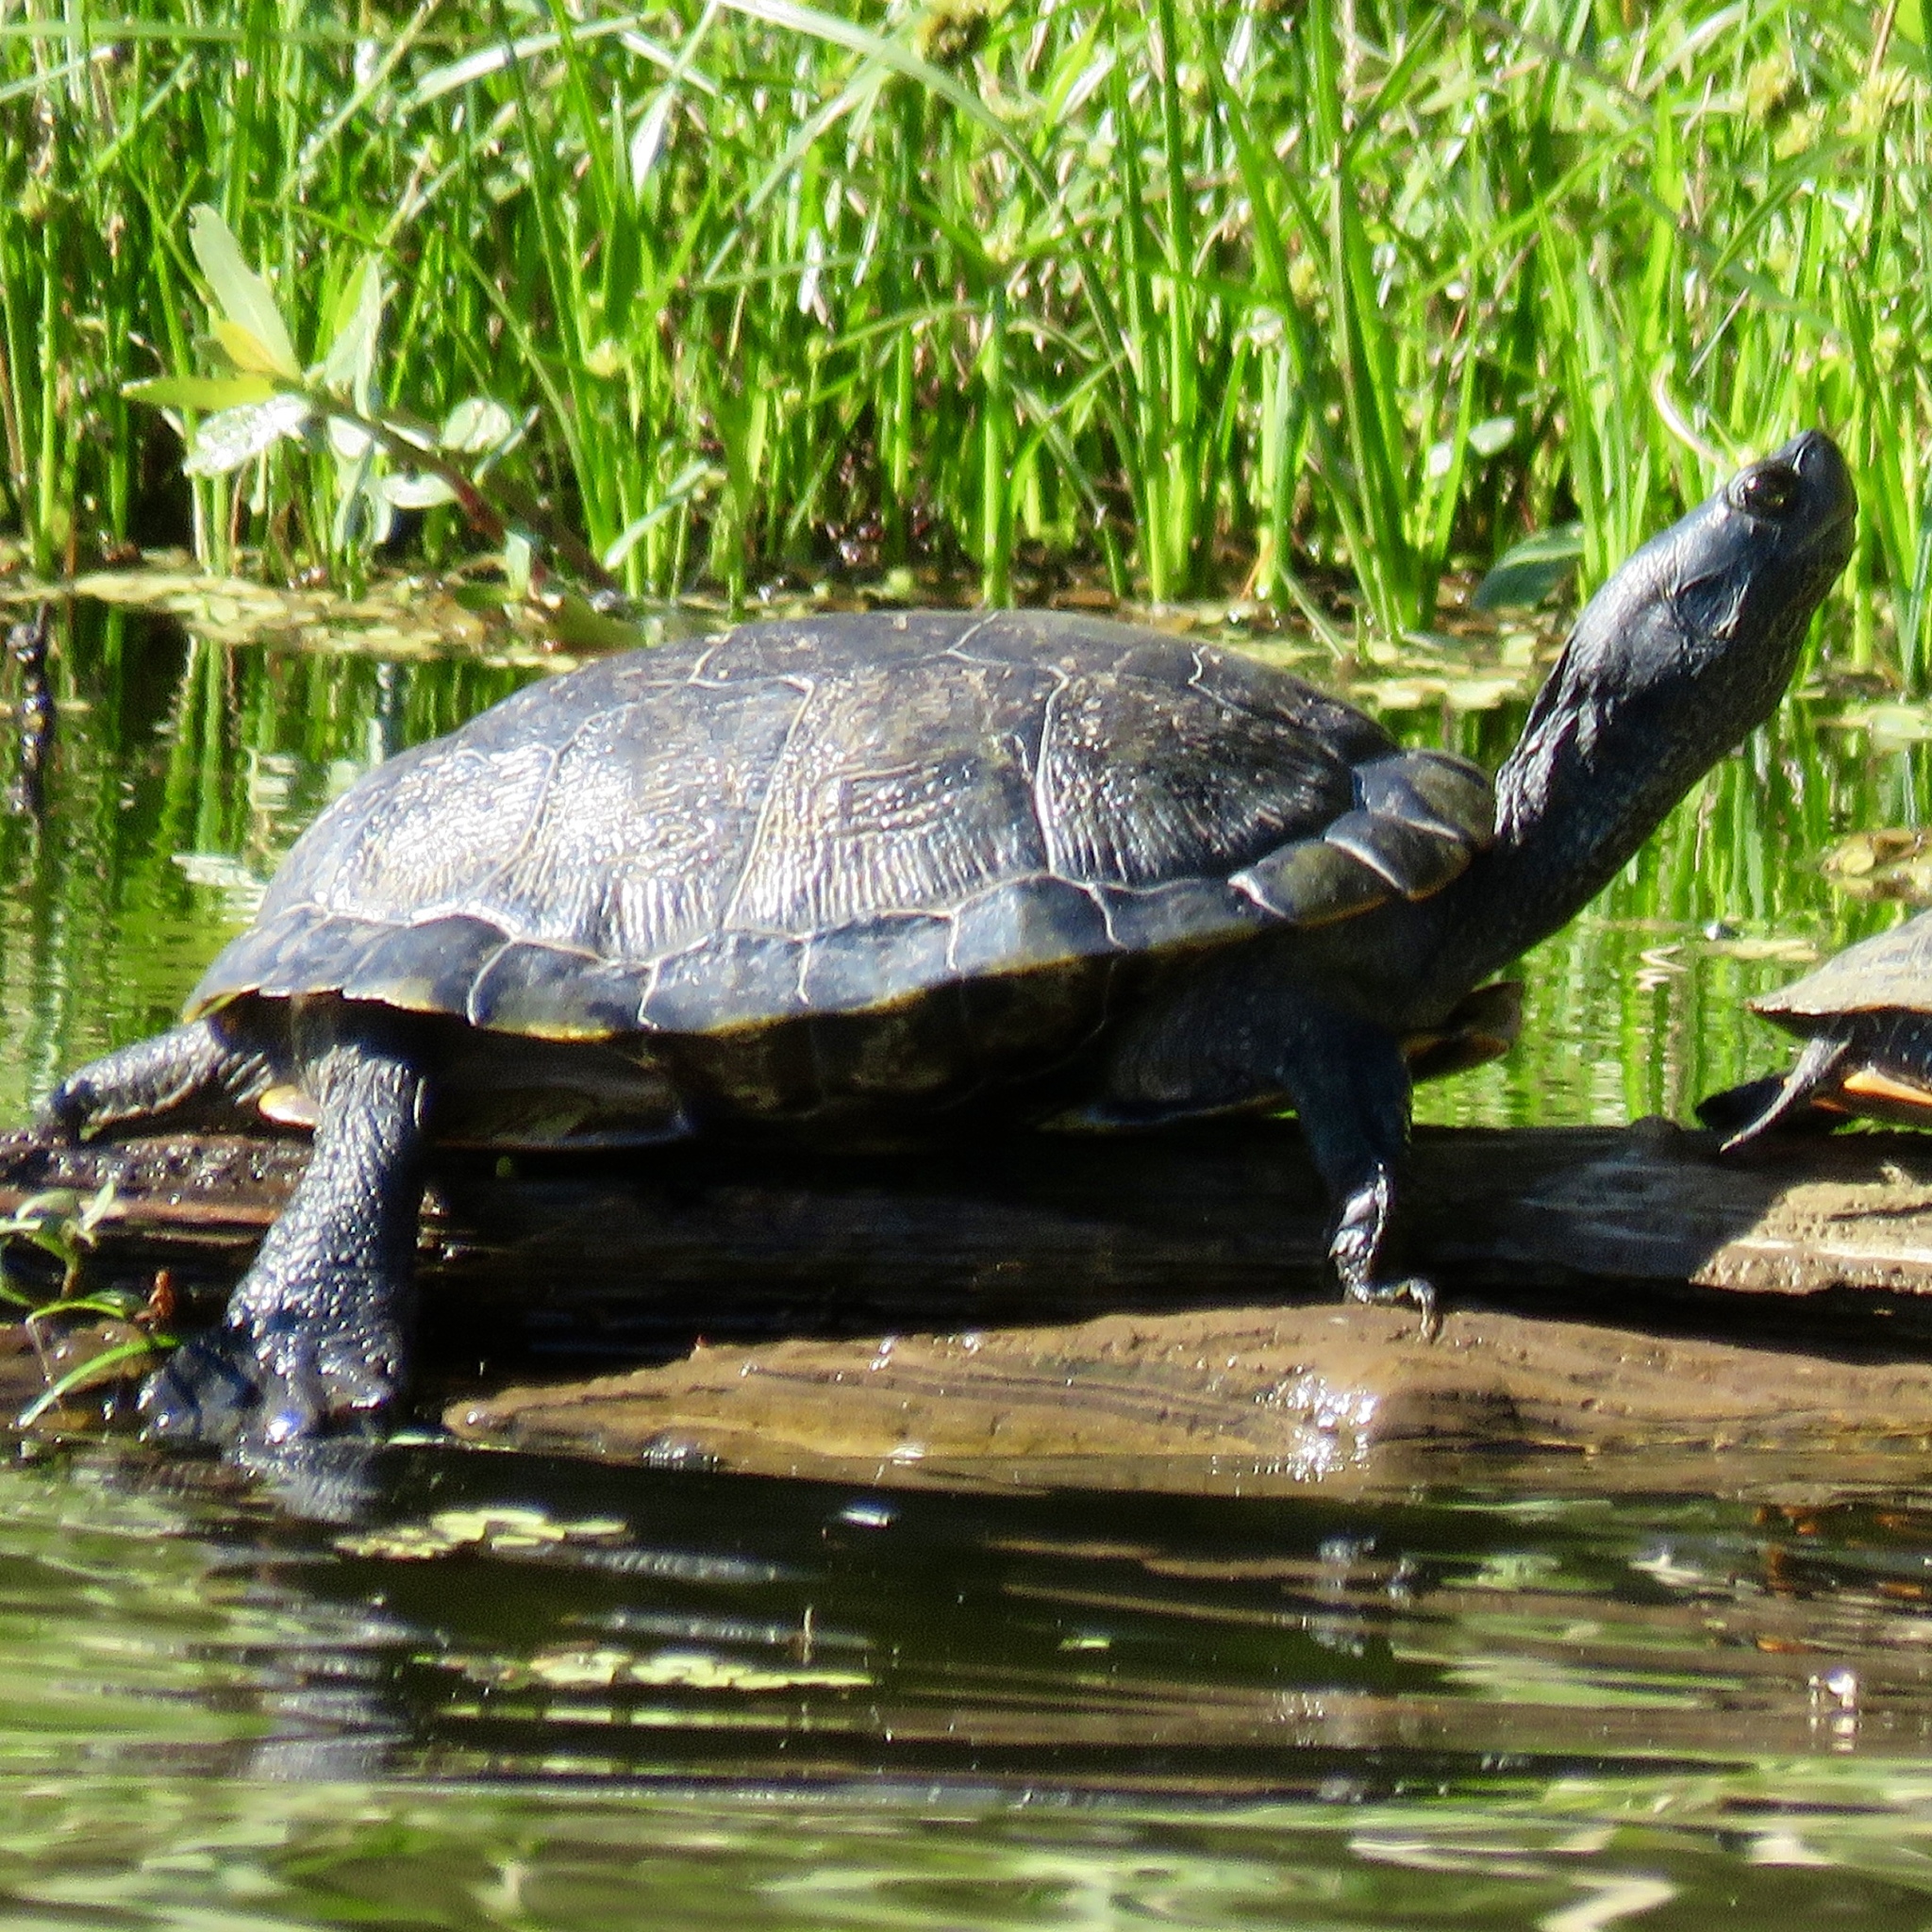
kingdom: Animalia
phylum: Chordata
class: Testudines
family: Emydidae
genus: Trachemys
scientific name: Trachemys scripta
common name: Slider
